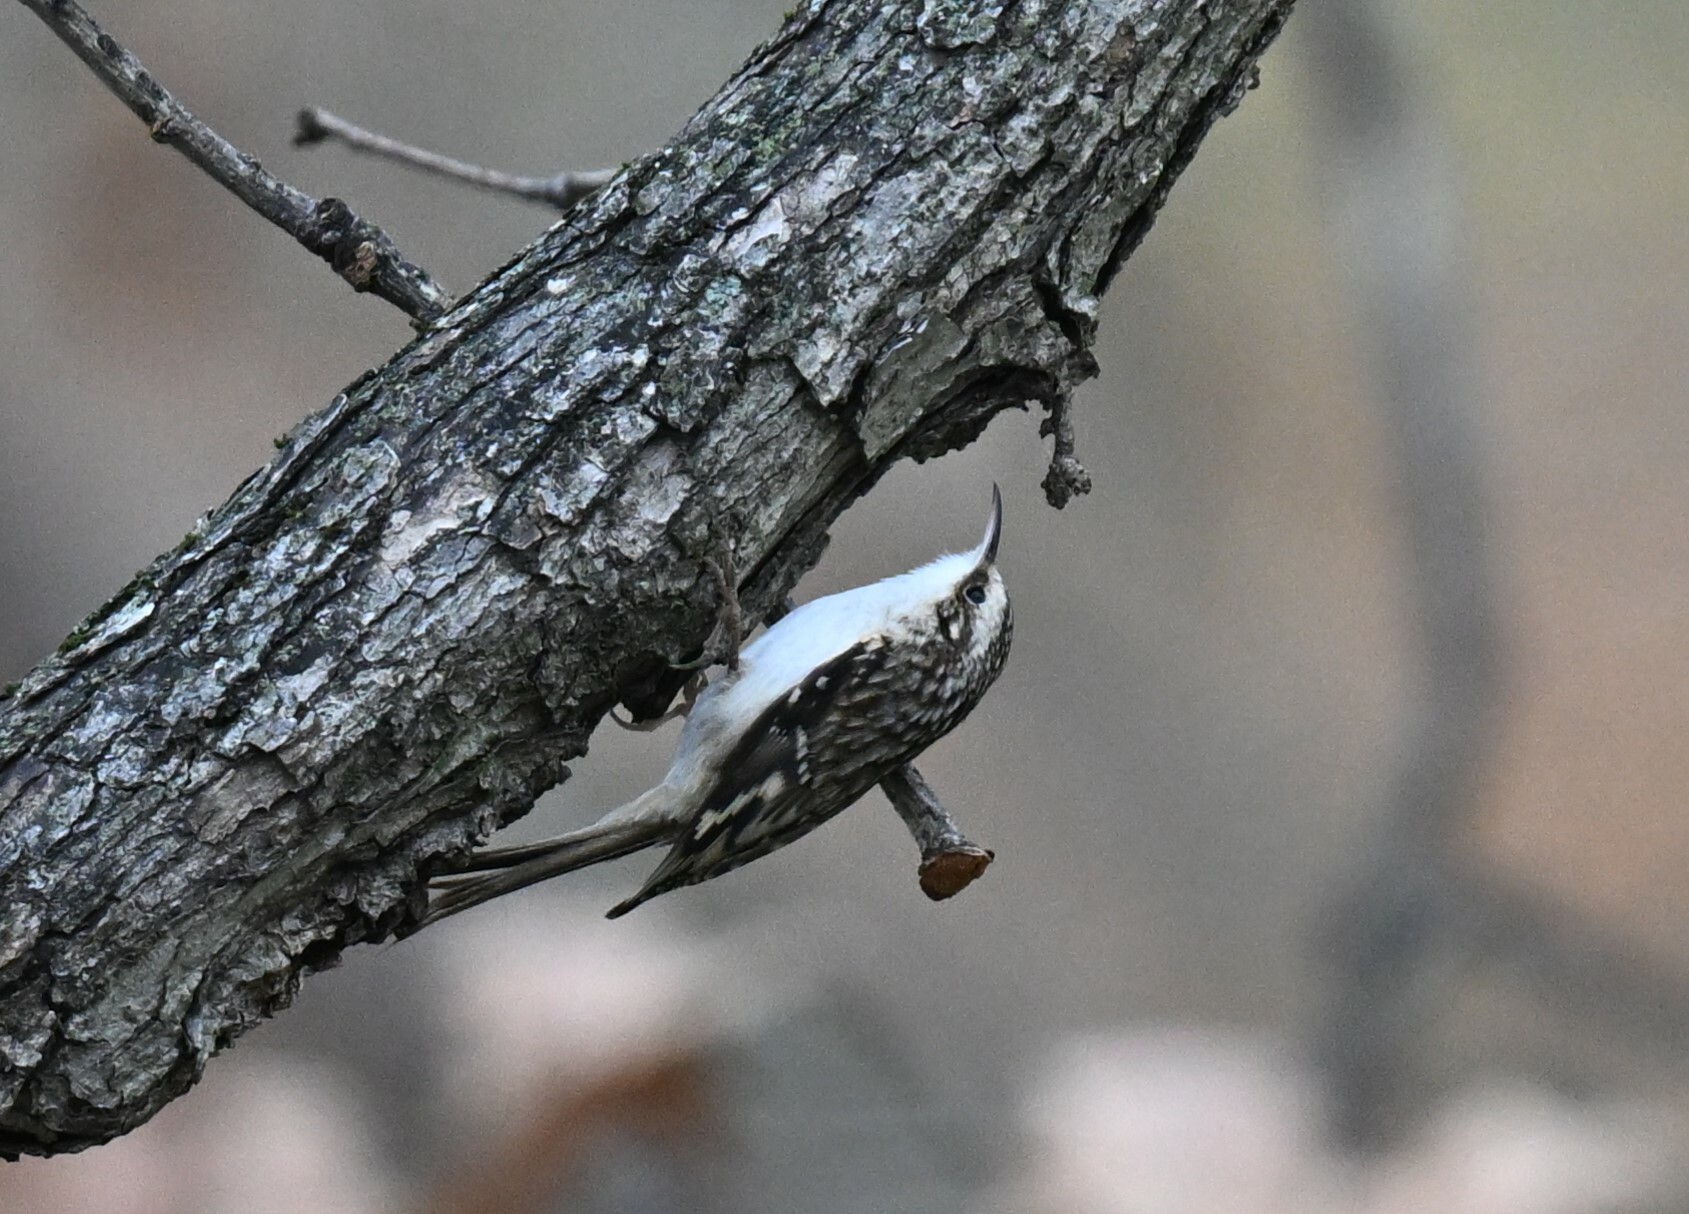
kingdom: Animalia
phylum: Chordata
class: Aves
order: Passeriformes
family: Certhiidae
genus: Certhia
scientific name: Certhia americana
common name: Brown creeper
